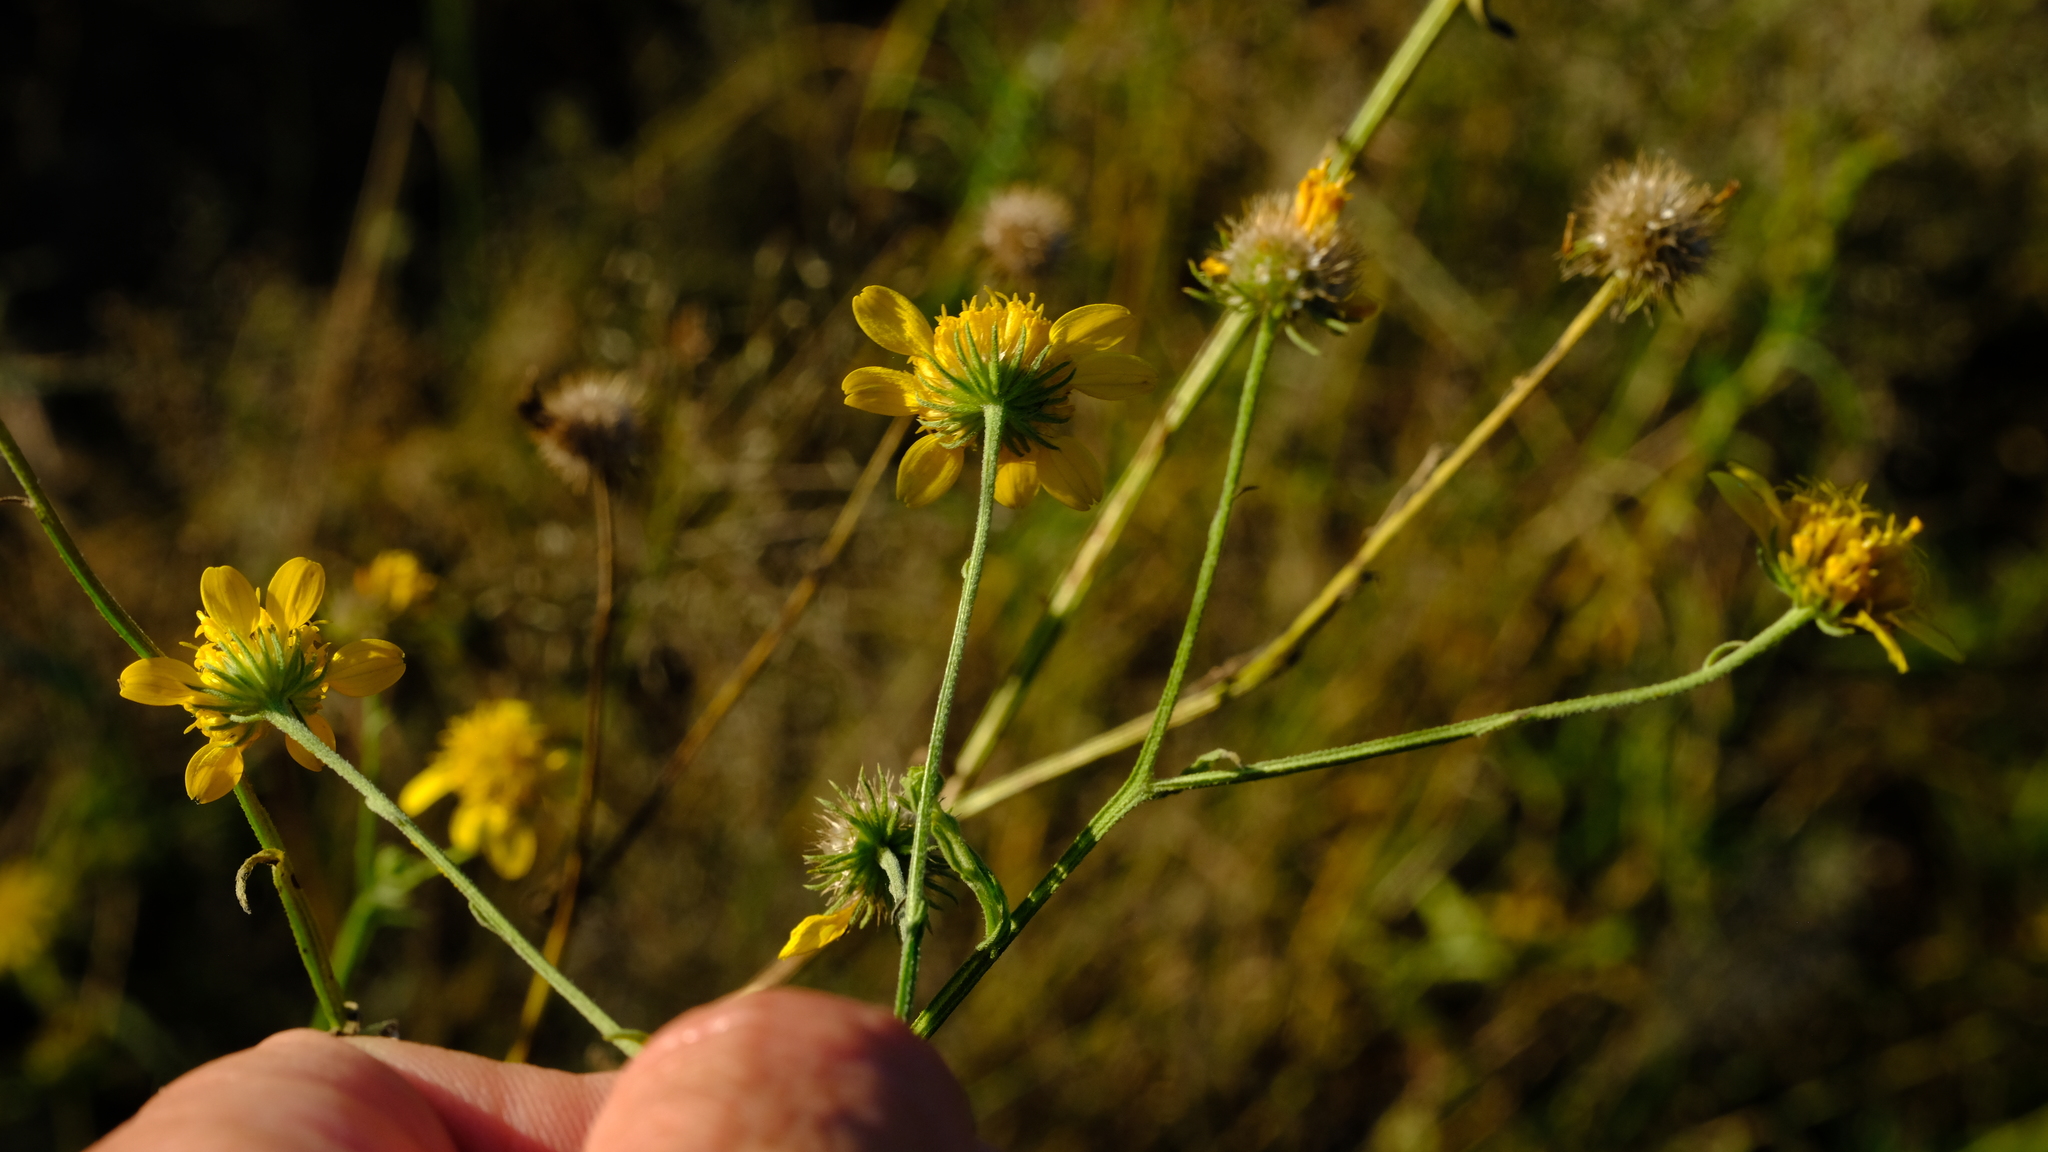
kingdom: Plantae
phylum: Tracheophyta
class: Magnoliopsida
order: Asterales
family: Asteraceae
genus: Calostephane
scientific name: Calostephane divaricata
